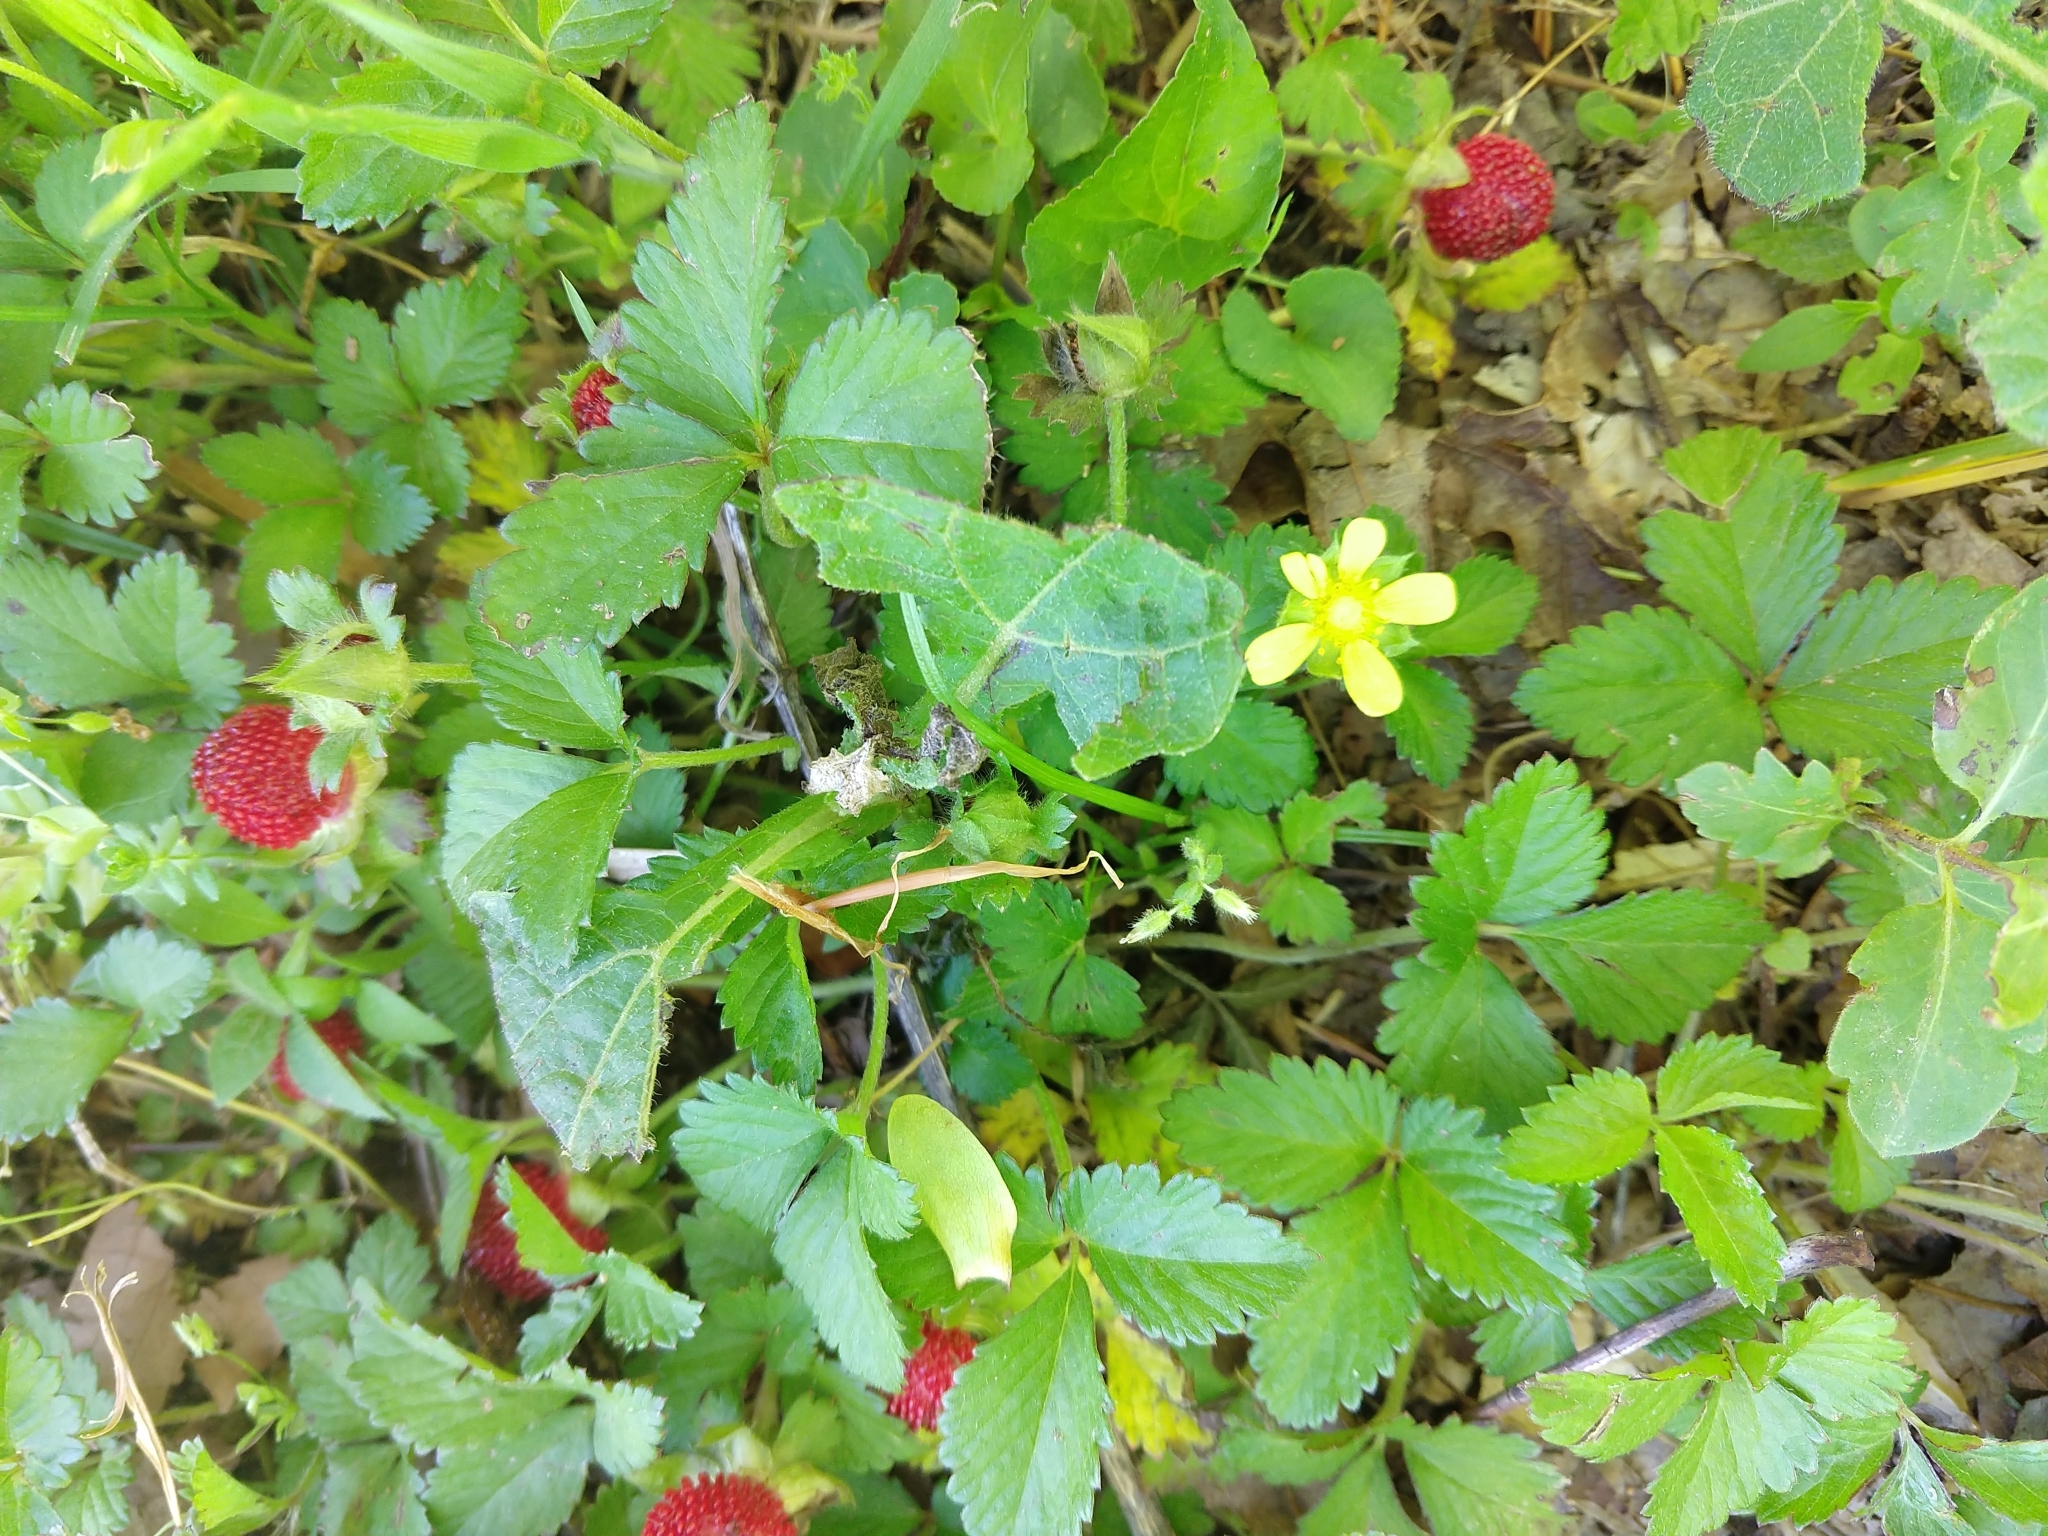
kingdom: Plantae
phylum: Tracheophyta
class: Magnoliopsida
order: Rosales
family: Rosaceae
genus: Potentilla
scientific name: Potentilla indica
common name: Yellow-flowered strawberry
